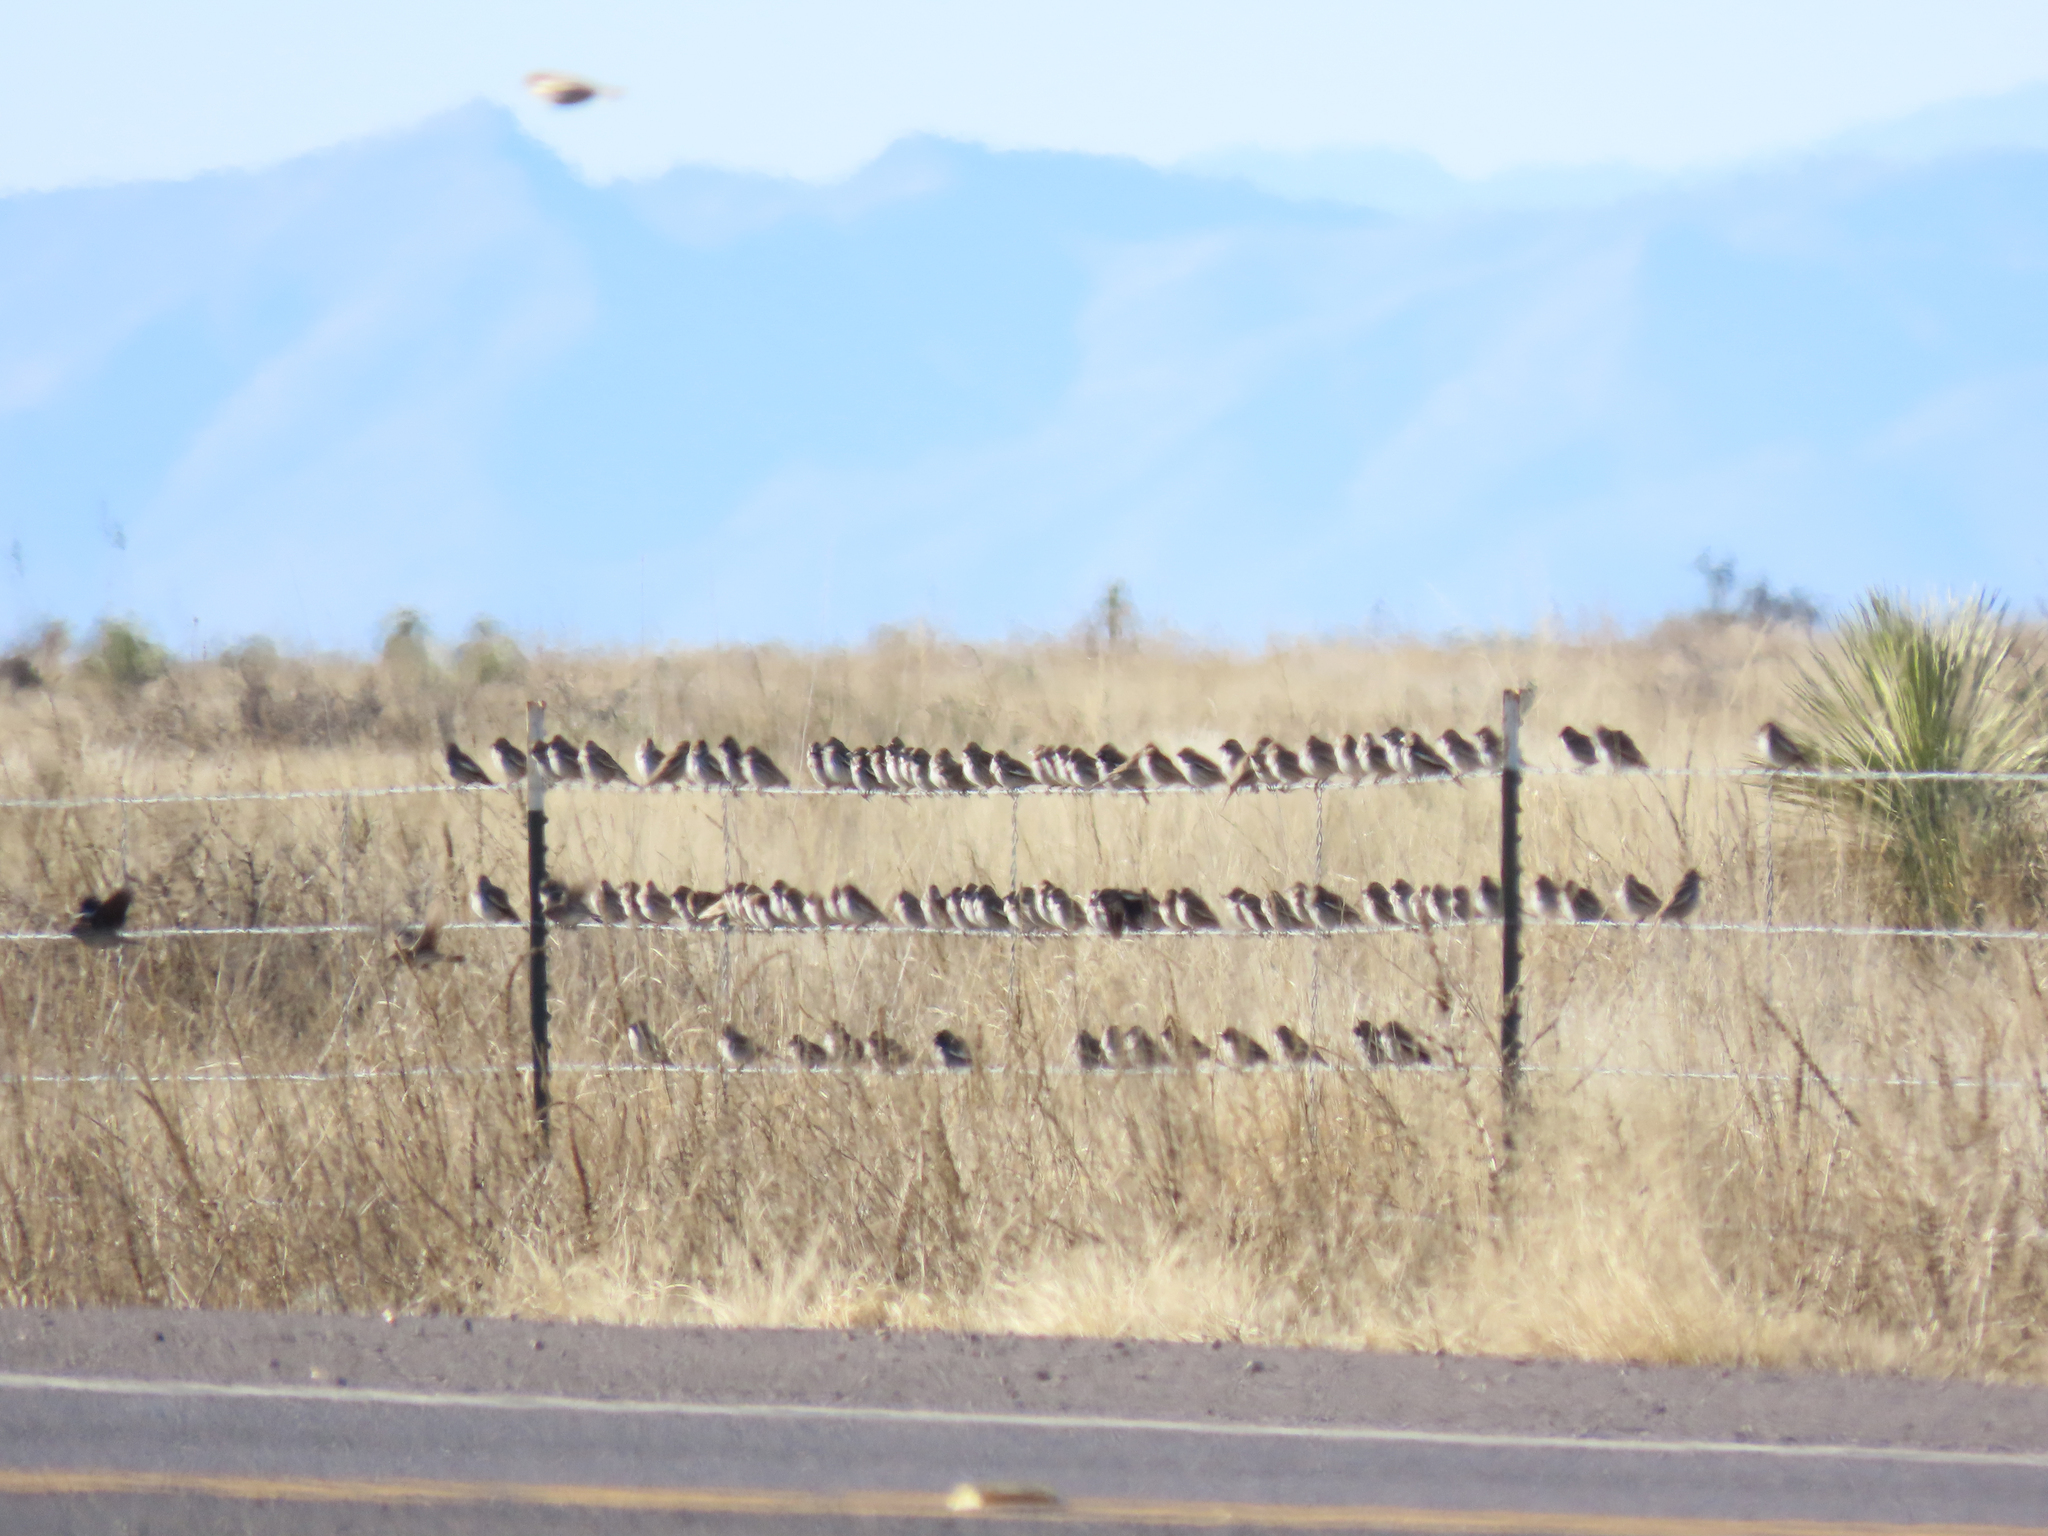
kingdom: Animalia
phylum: Chordata
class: Aves
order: Passeriformes
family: Passerellidae
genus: Calamospiza
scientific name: Calamospiza melanocorys
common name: Lark bunting
